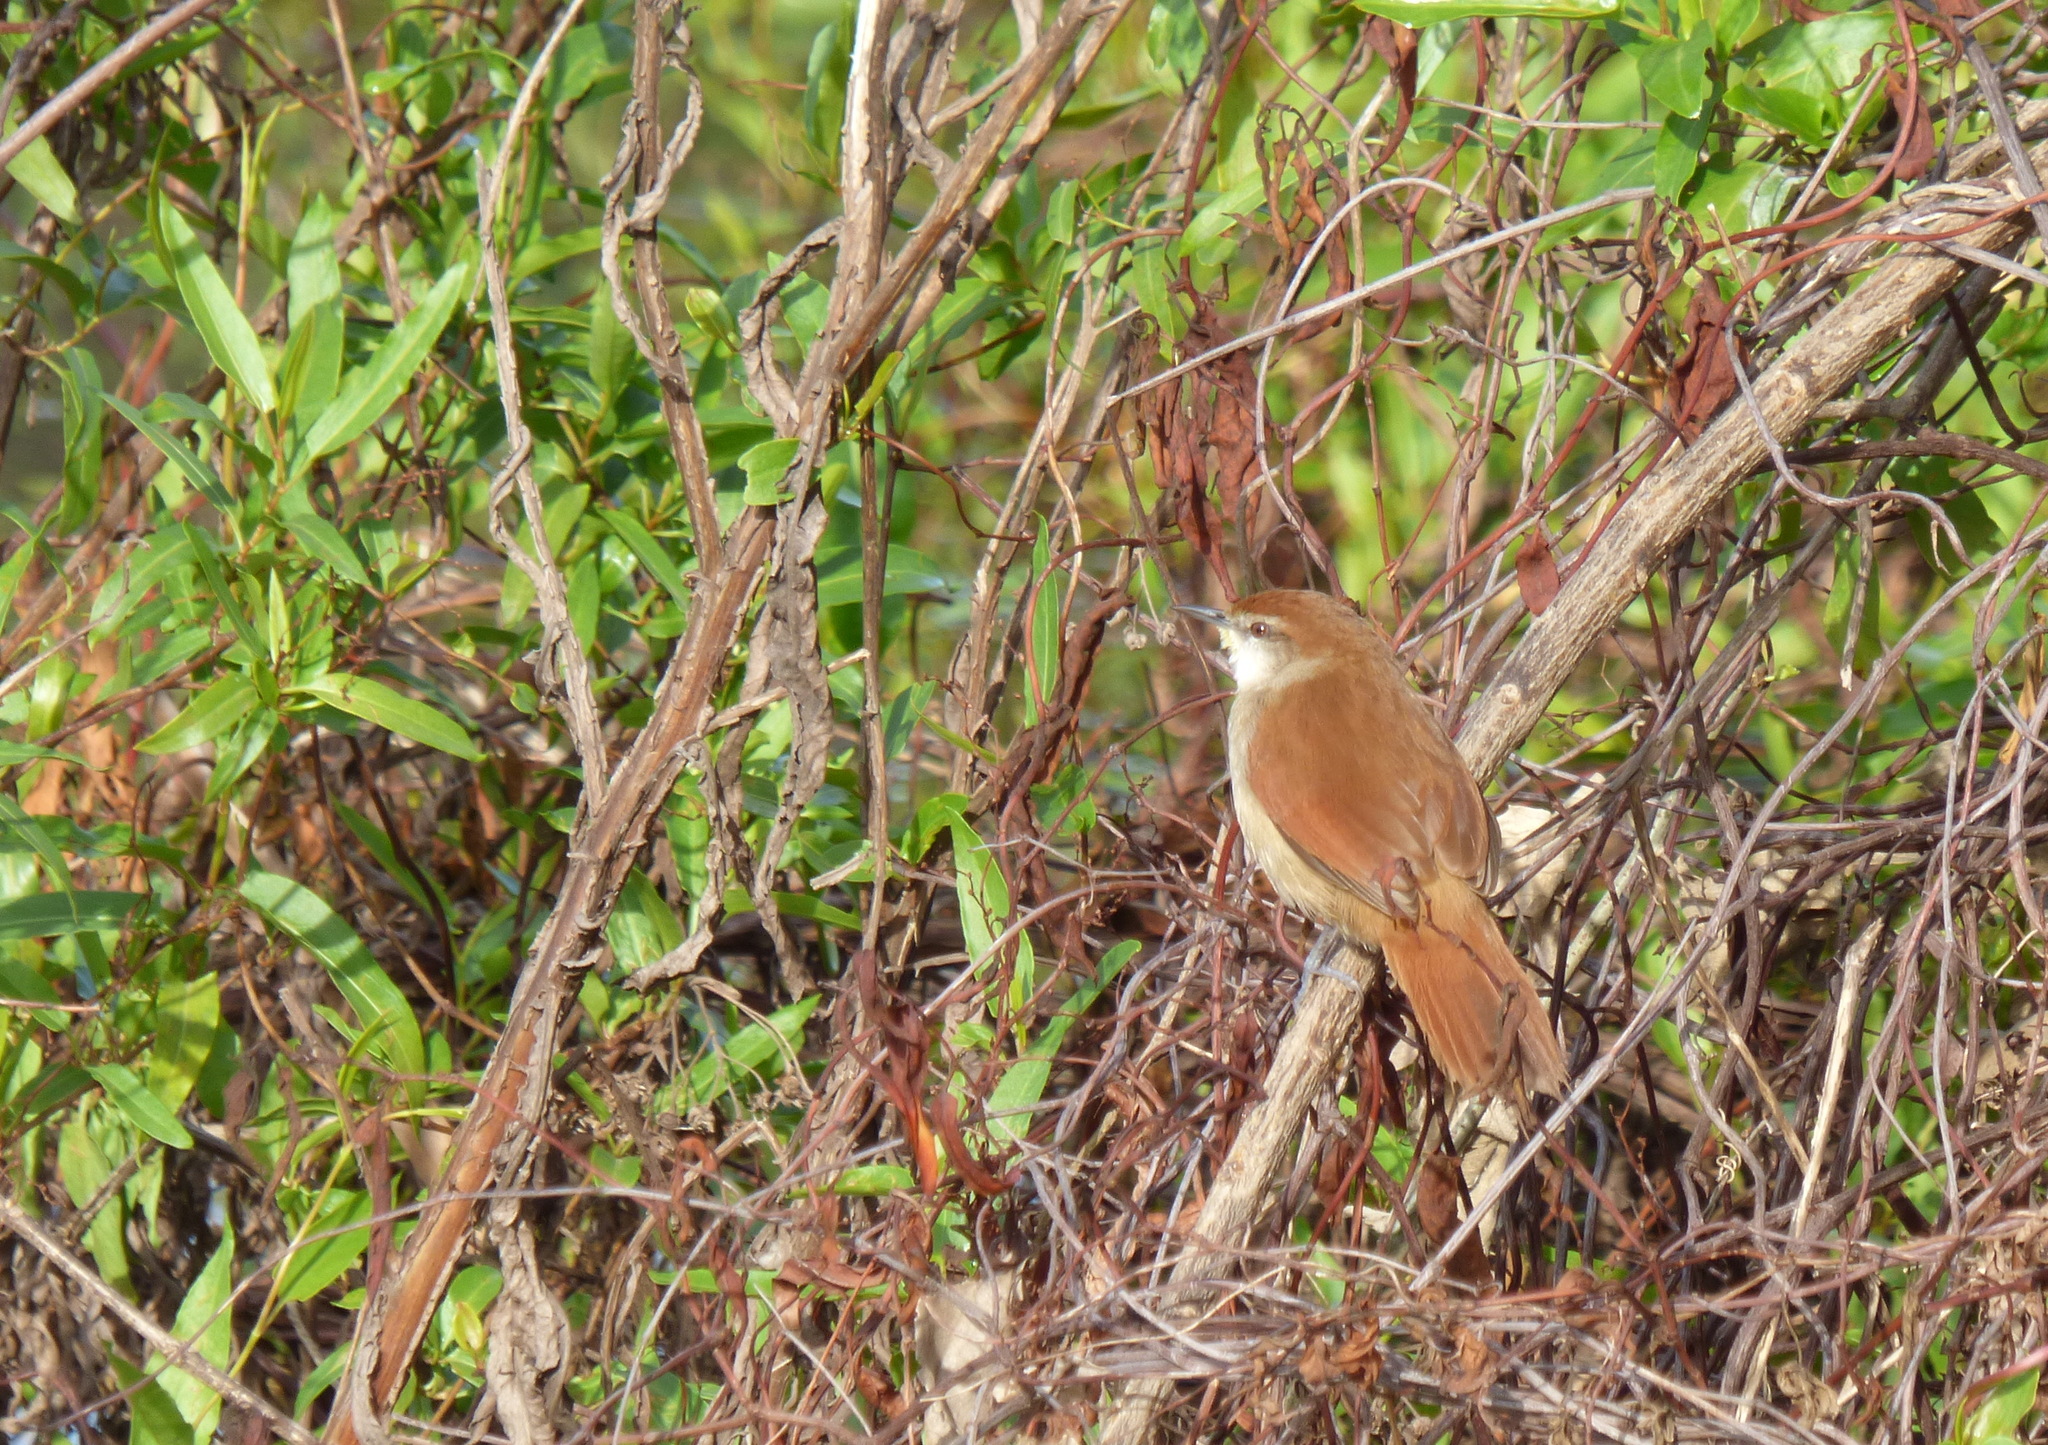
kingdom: Animalia
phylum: Chordata
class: Aves
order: Passeriformes
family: Furnariidae
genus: Certhiaxis
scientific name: Certhiaxis cinnamomeus
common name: Yellow-chinned spinetail
